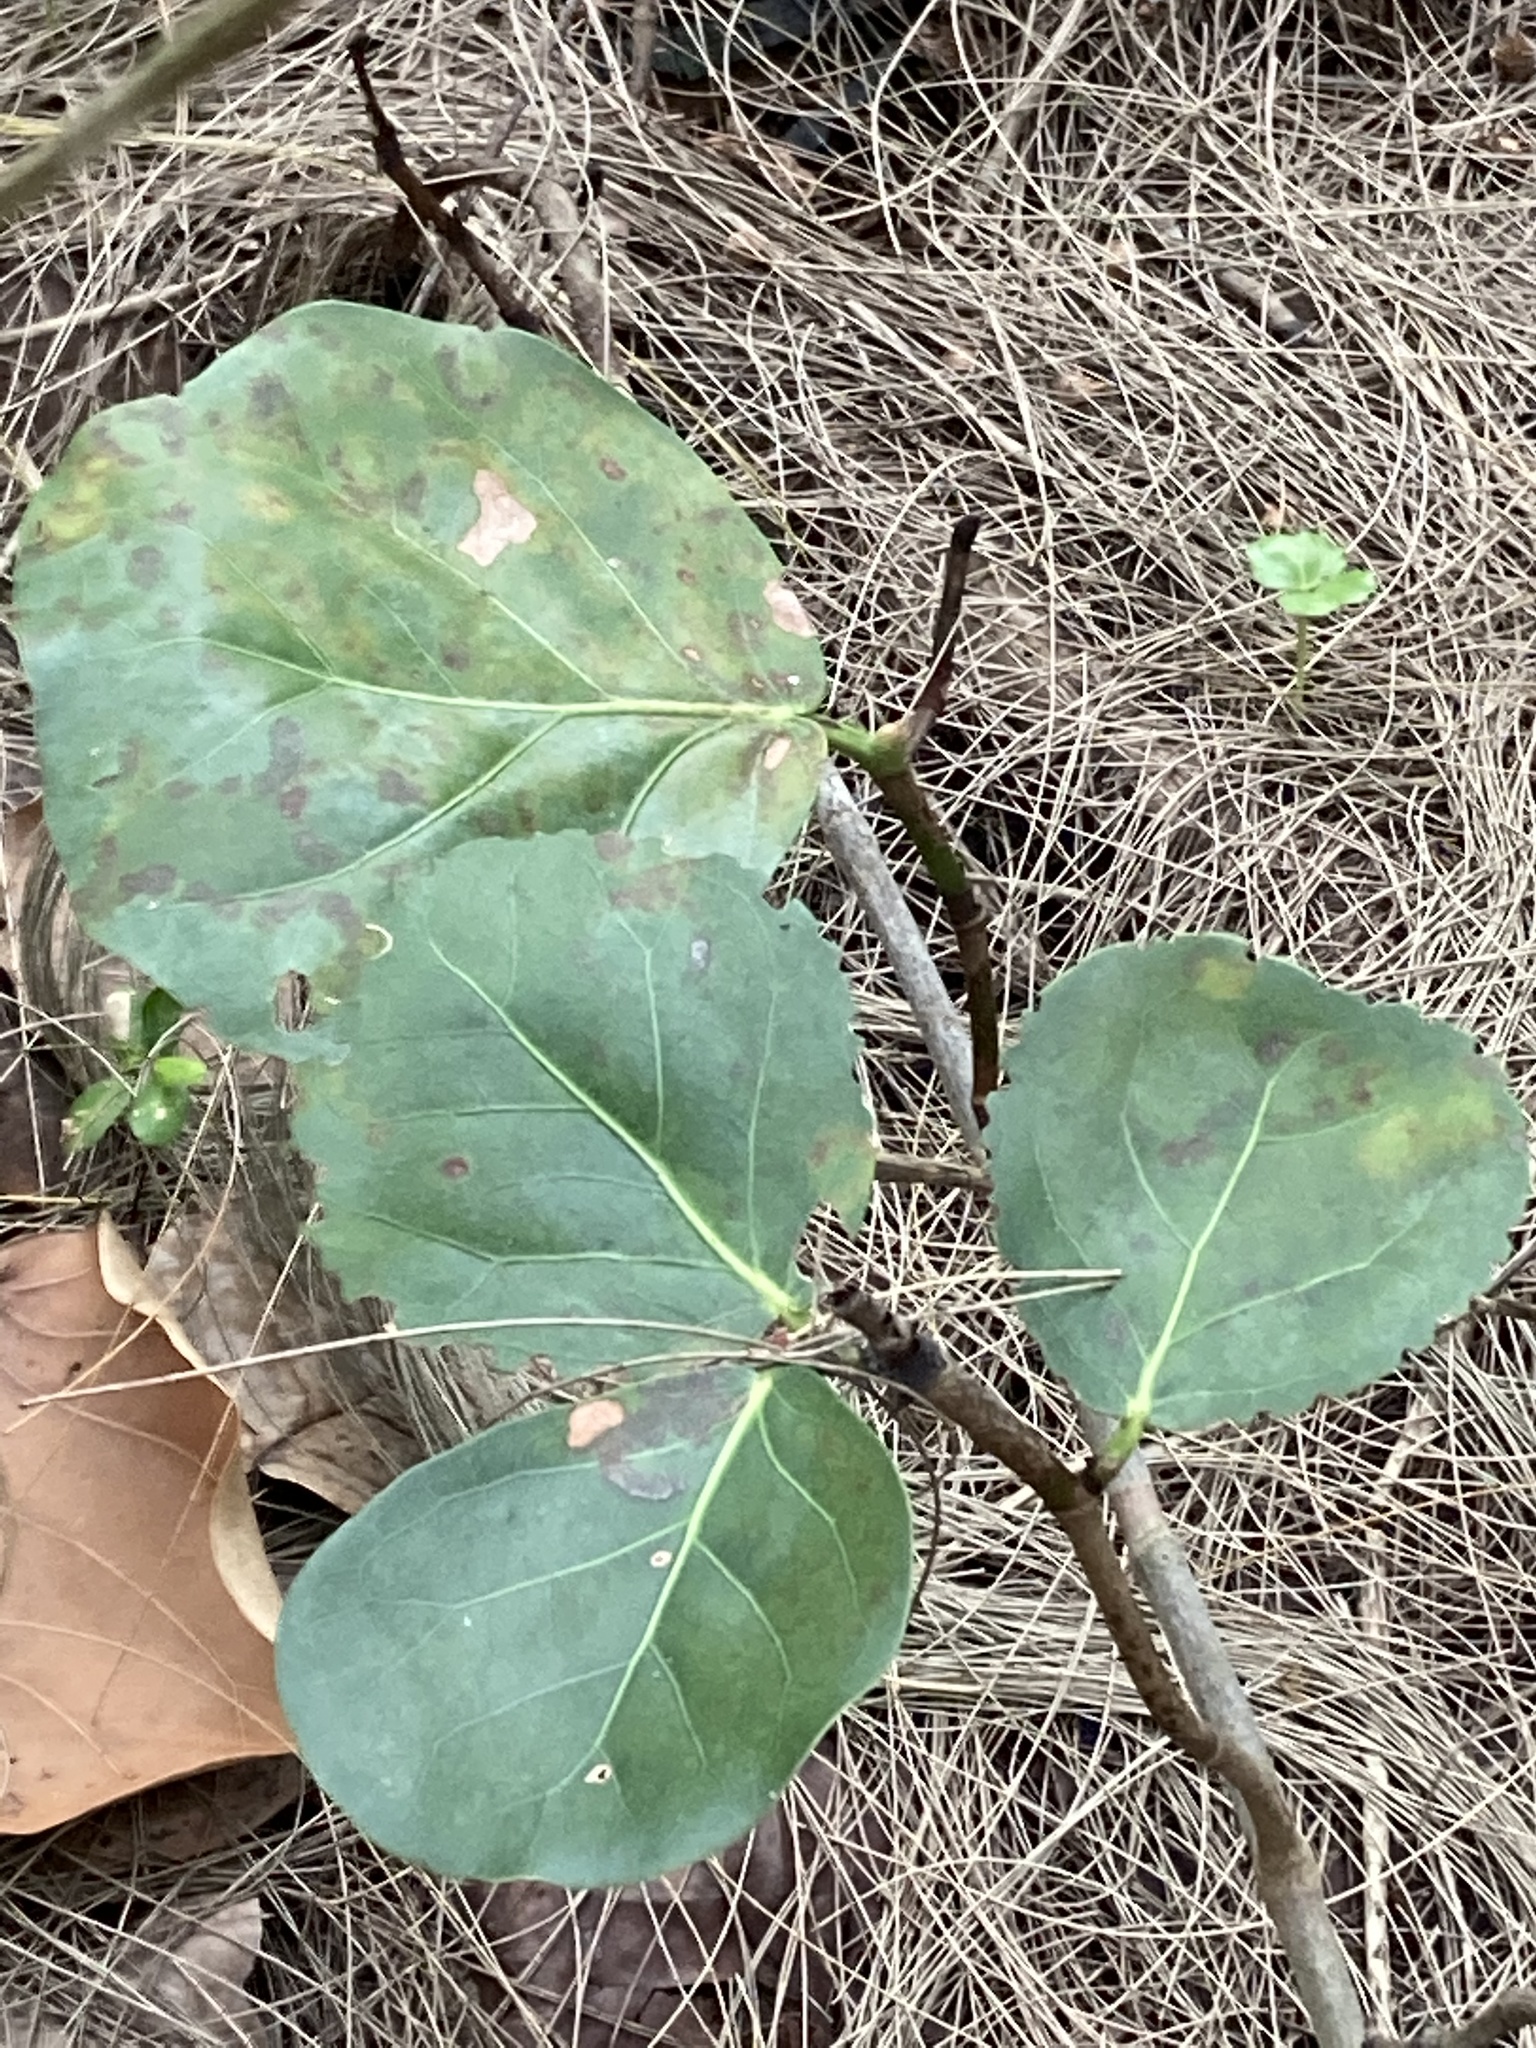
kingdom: Plantae
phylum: Tracheophyta
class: Magnoliopsida
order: Caryophyllales
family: Polygonaceae
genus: Coccoloba
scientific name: Coccoloba uvifera
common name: Seagrape
